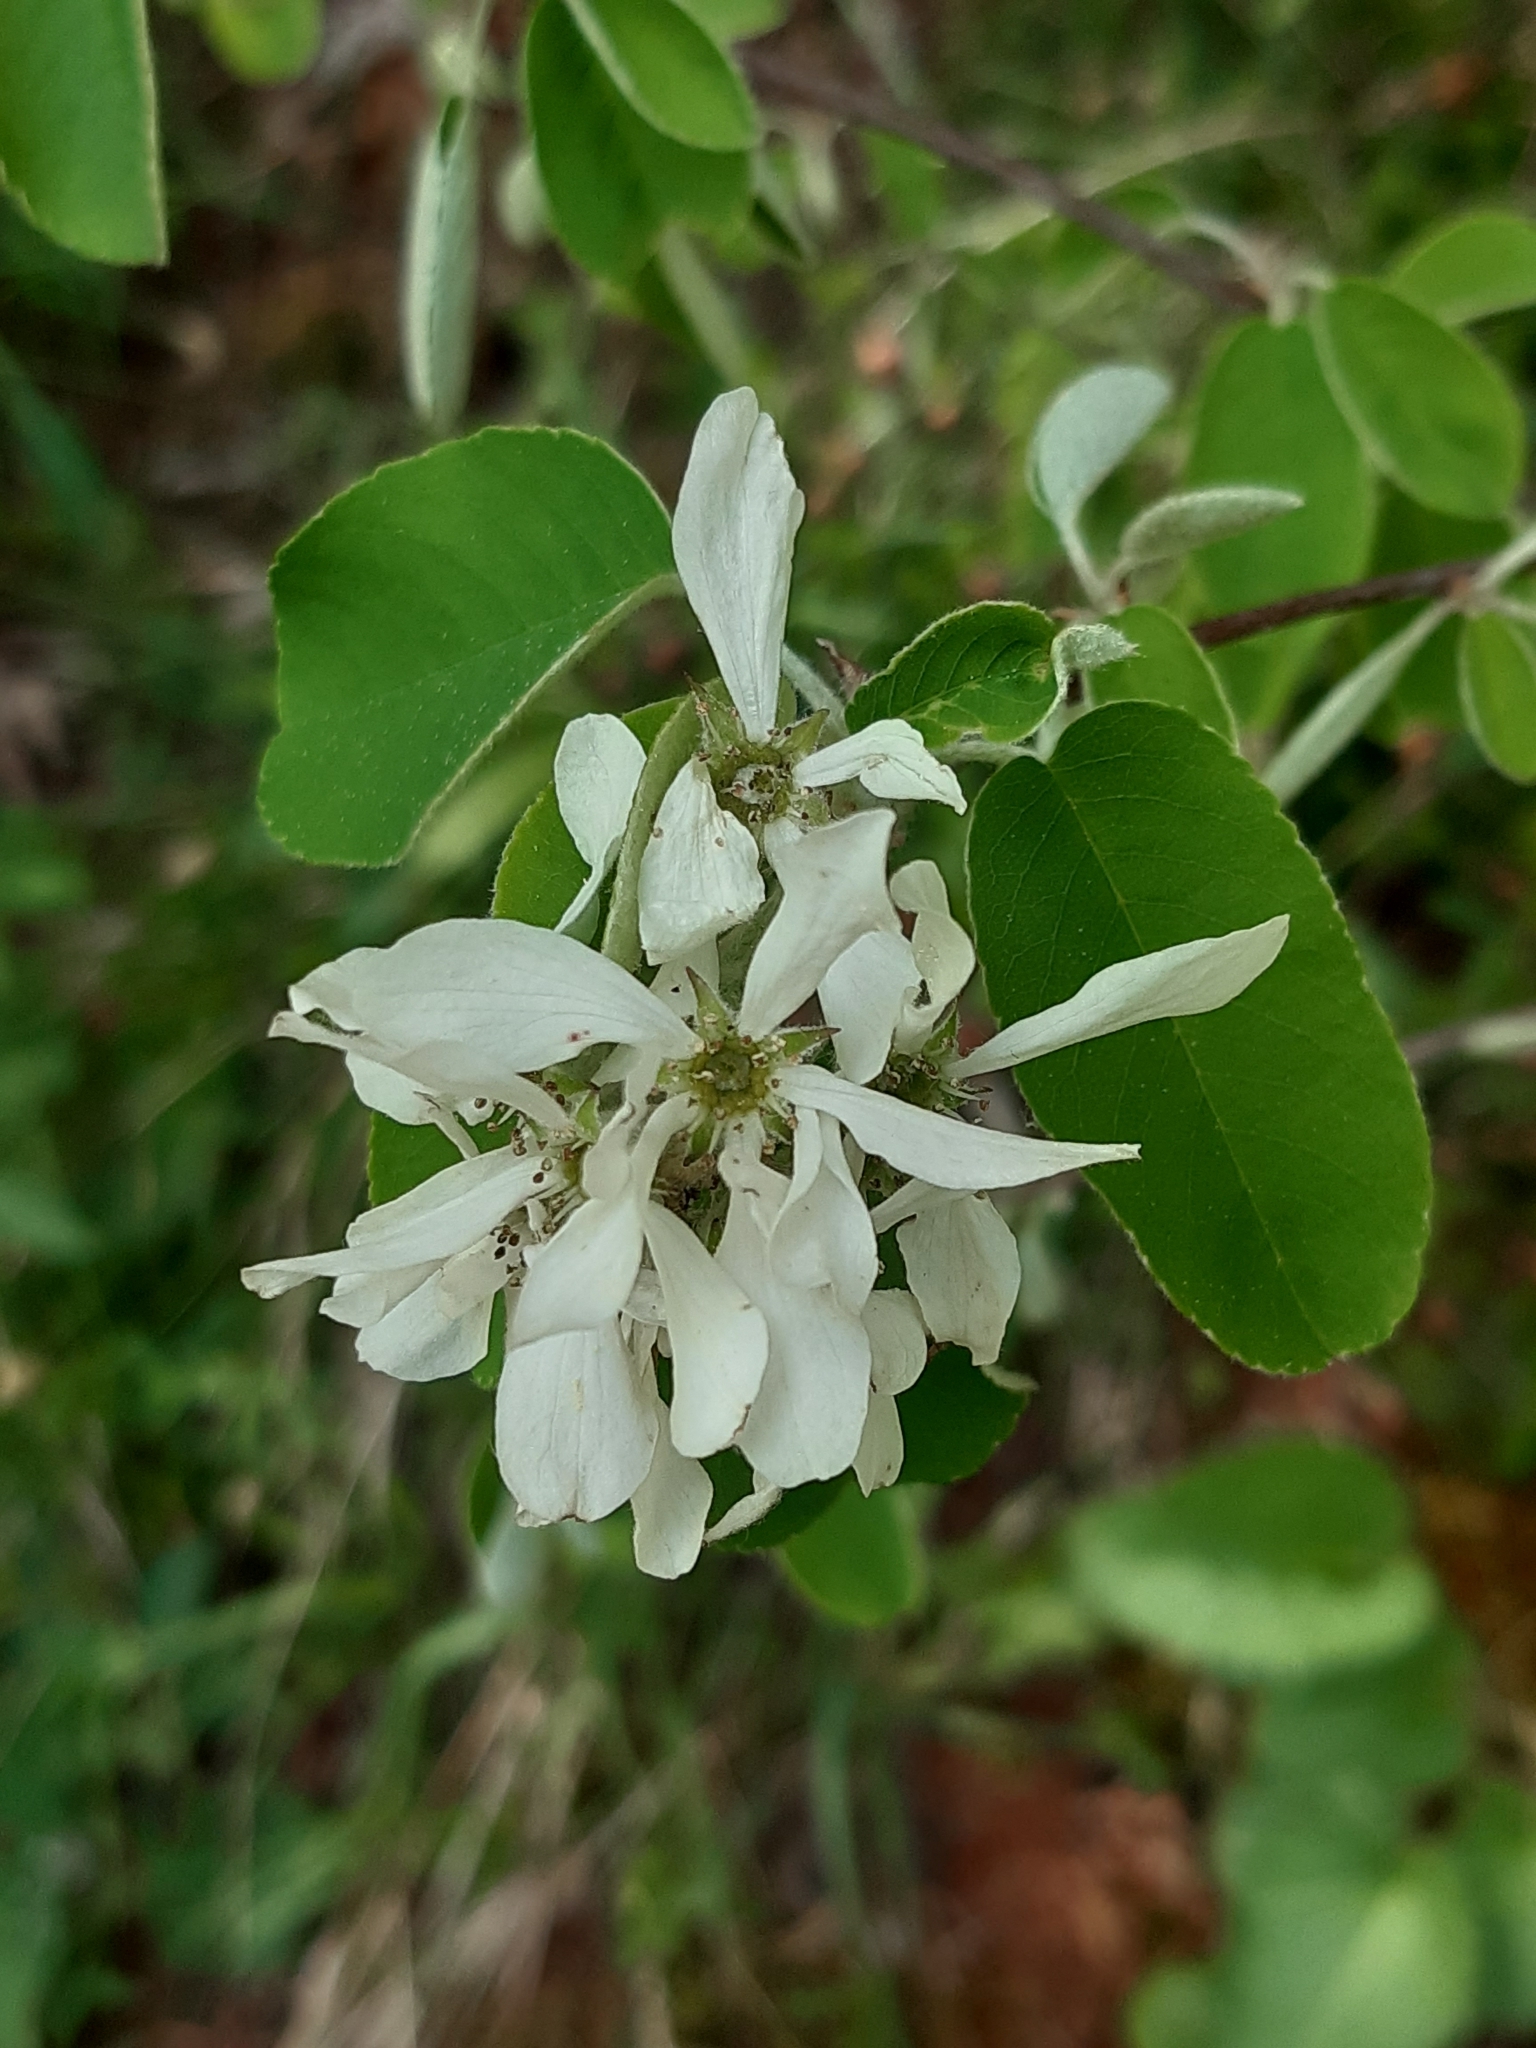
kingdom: Plantae
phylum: Tracheophyta
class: Magnoliopsida
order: Rosales
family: Rosaceae
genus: Amelanchier
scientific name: Amelanchier ovalis
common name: Serviceberry
